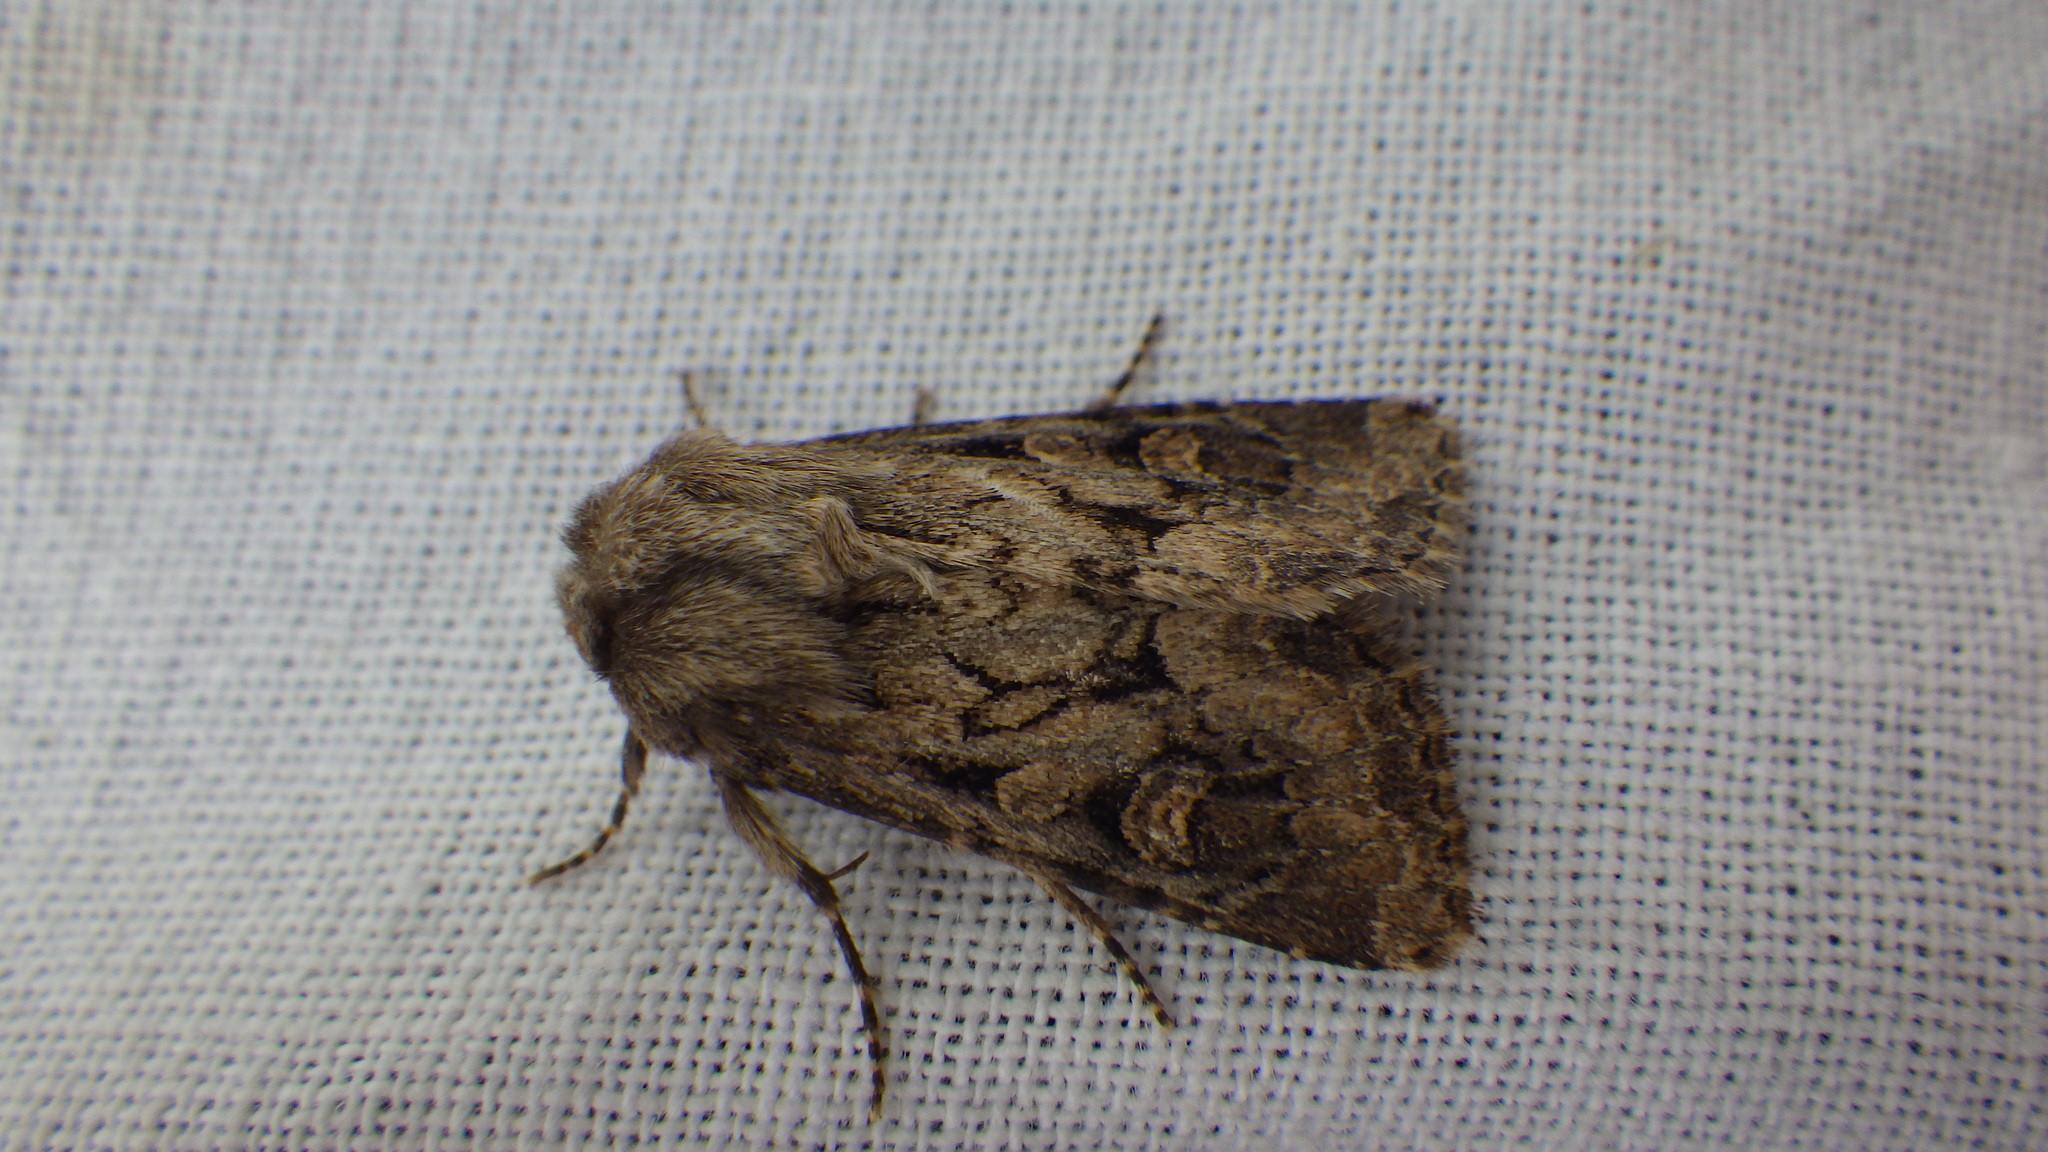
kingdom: Animalia
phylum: Arthropoda
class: Insecta
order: Lepidoptera
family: Noctuidae
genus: Luperina
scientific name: Luperina testacea
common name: Flounced rustic
